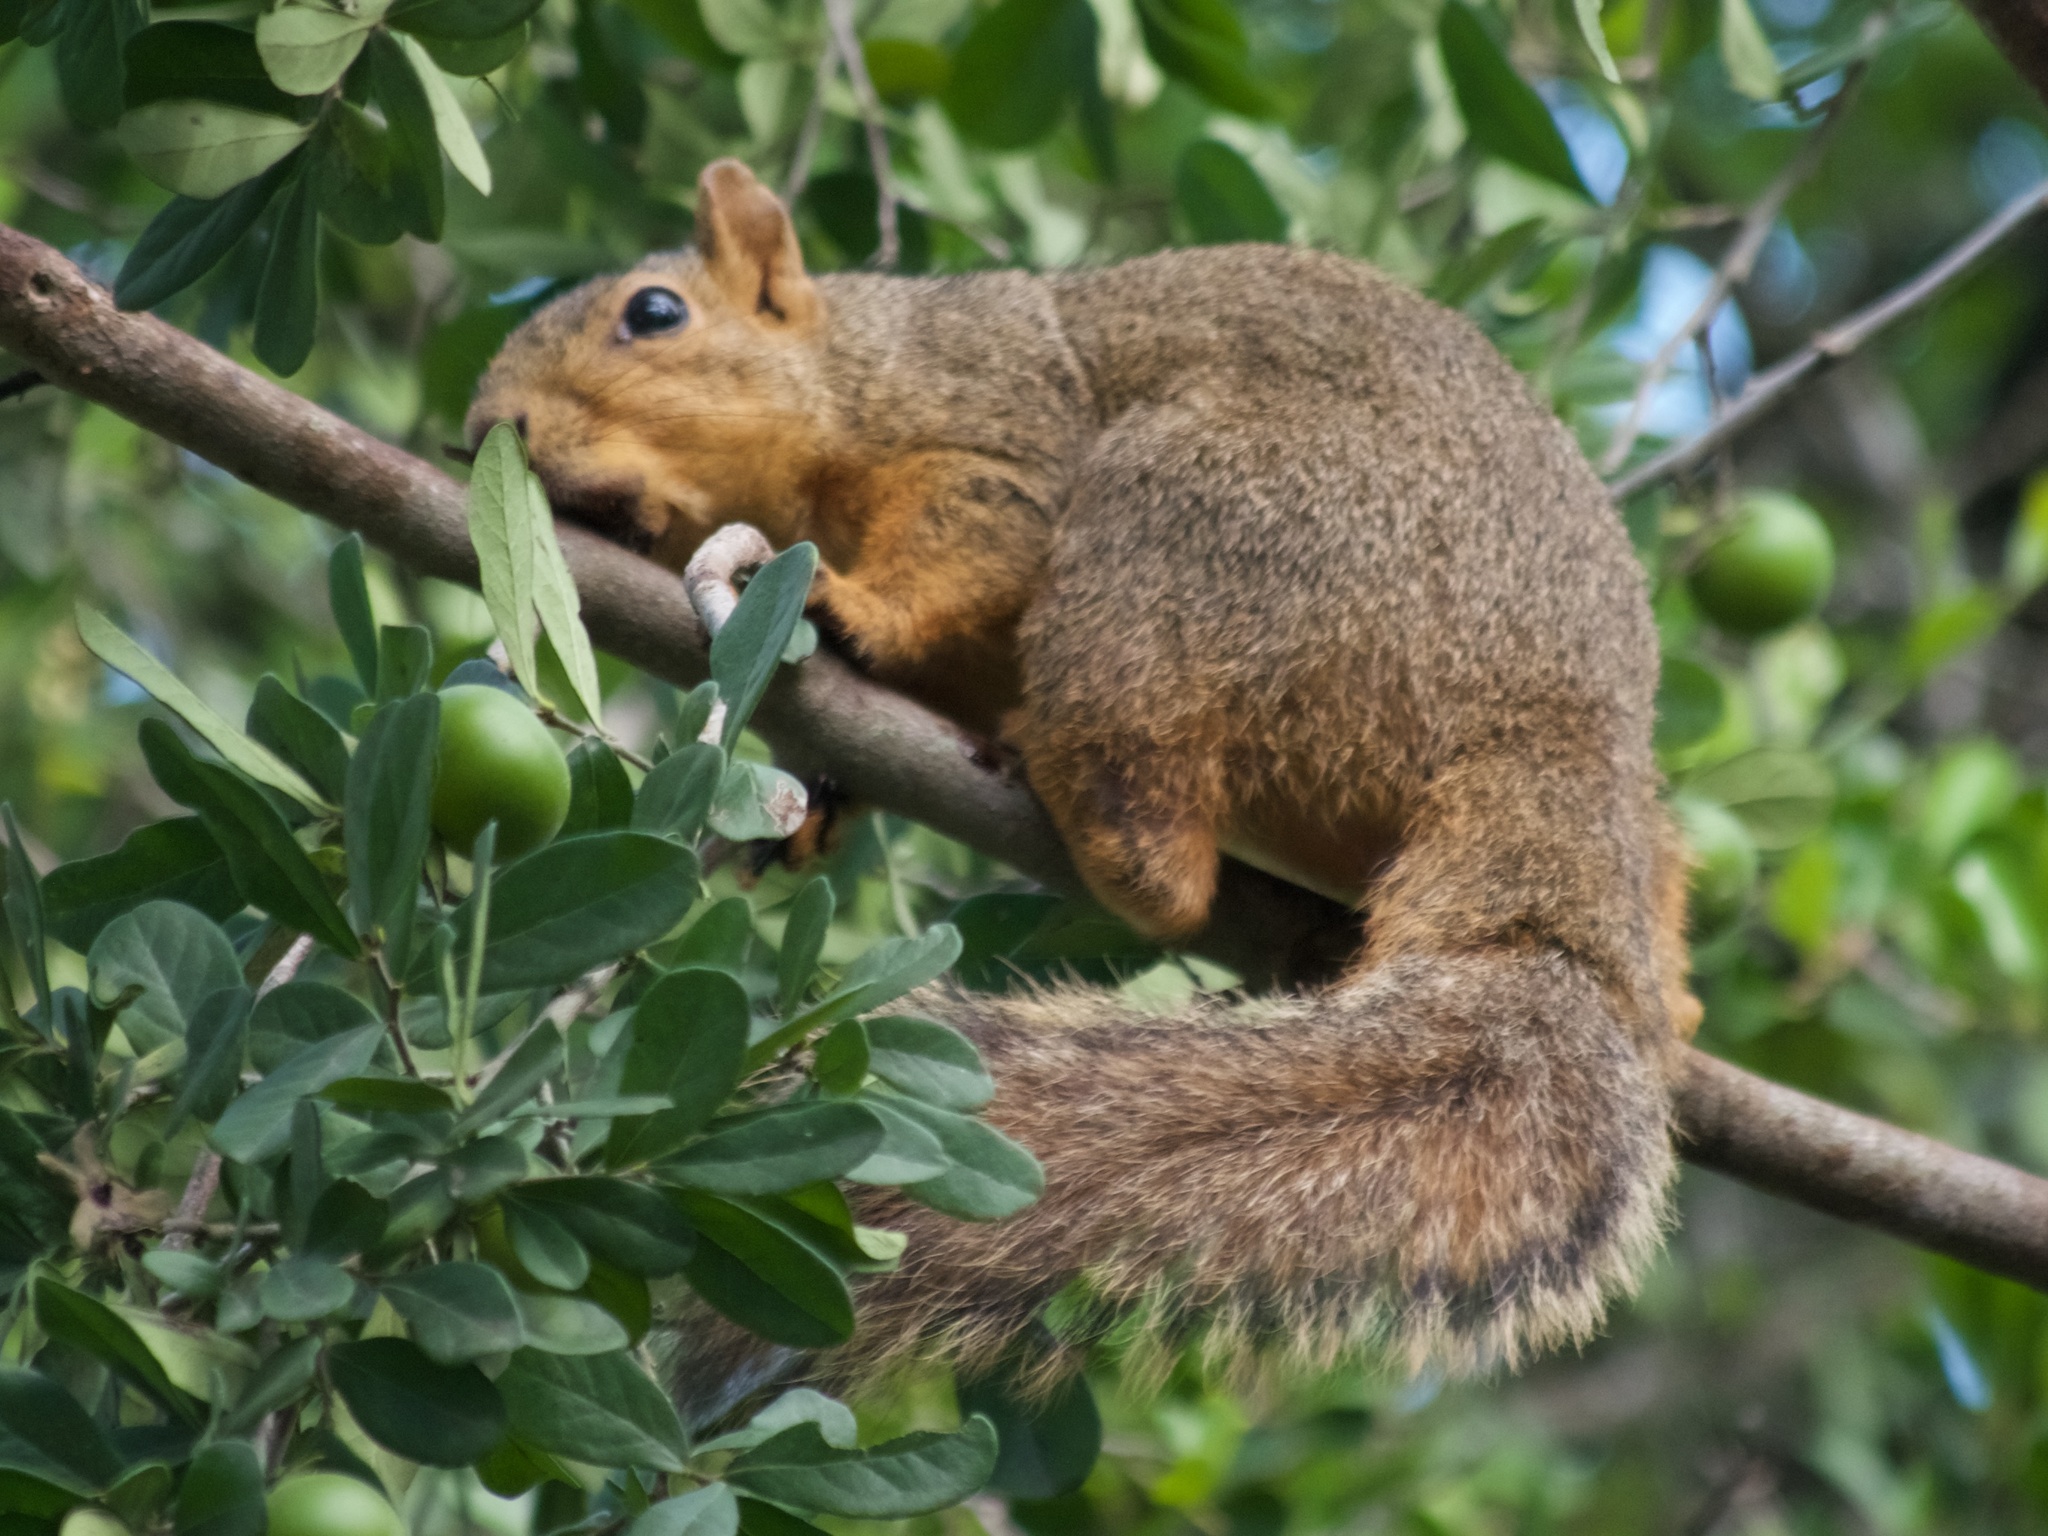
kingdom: Animalia
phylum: Chordata
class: Mammalia
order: Rodentia
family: Sciuridae
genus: Sciurus
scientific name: Sciurus niger
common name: Fox squirrel
